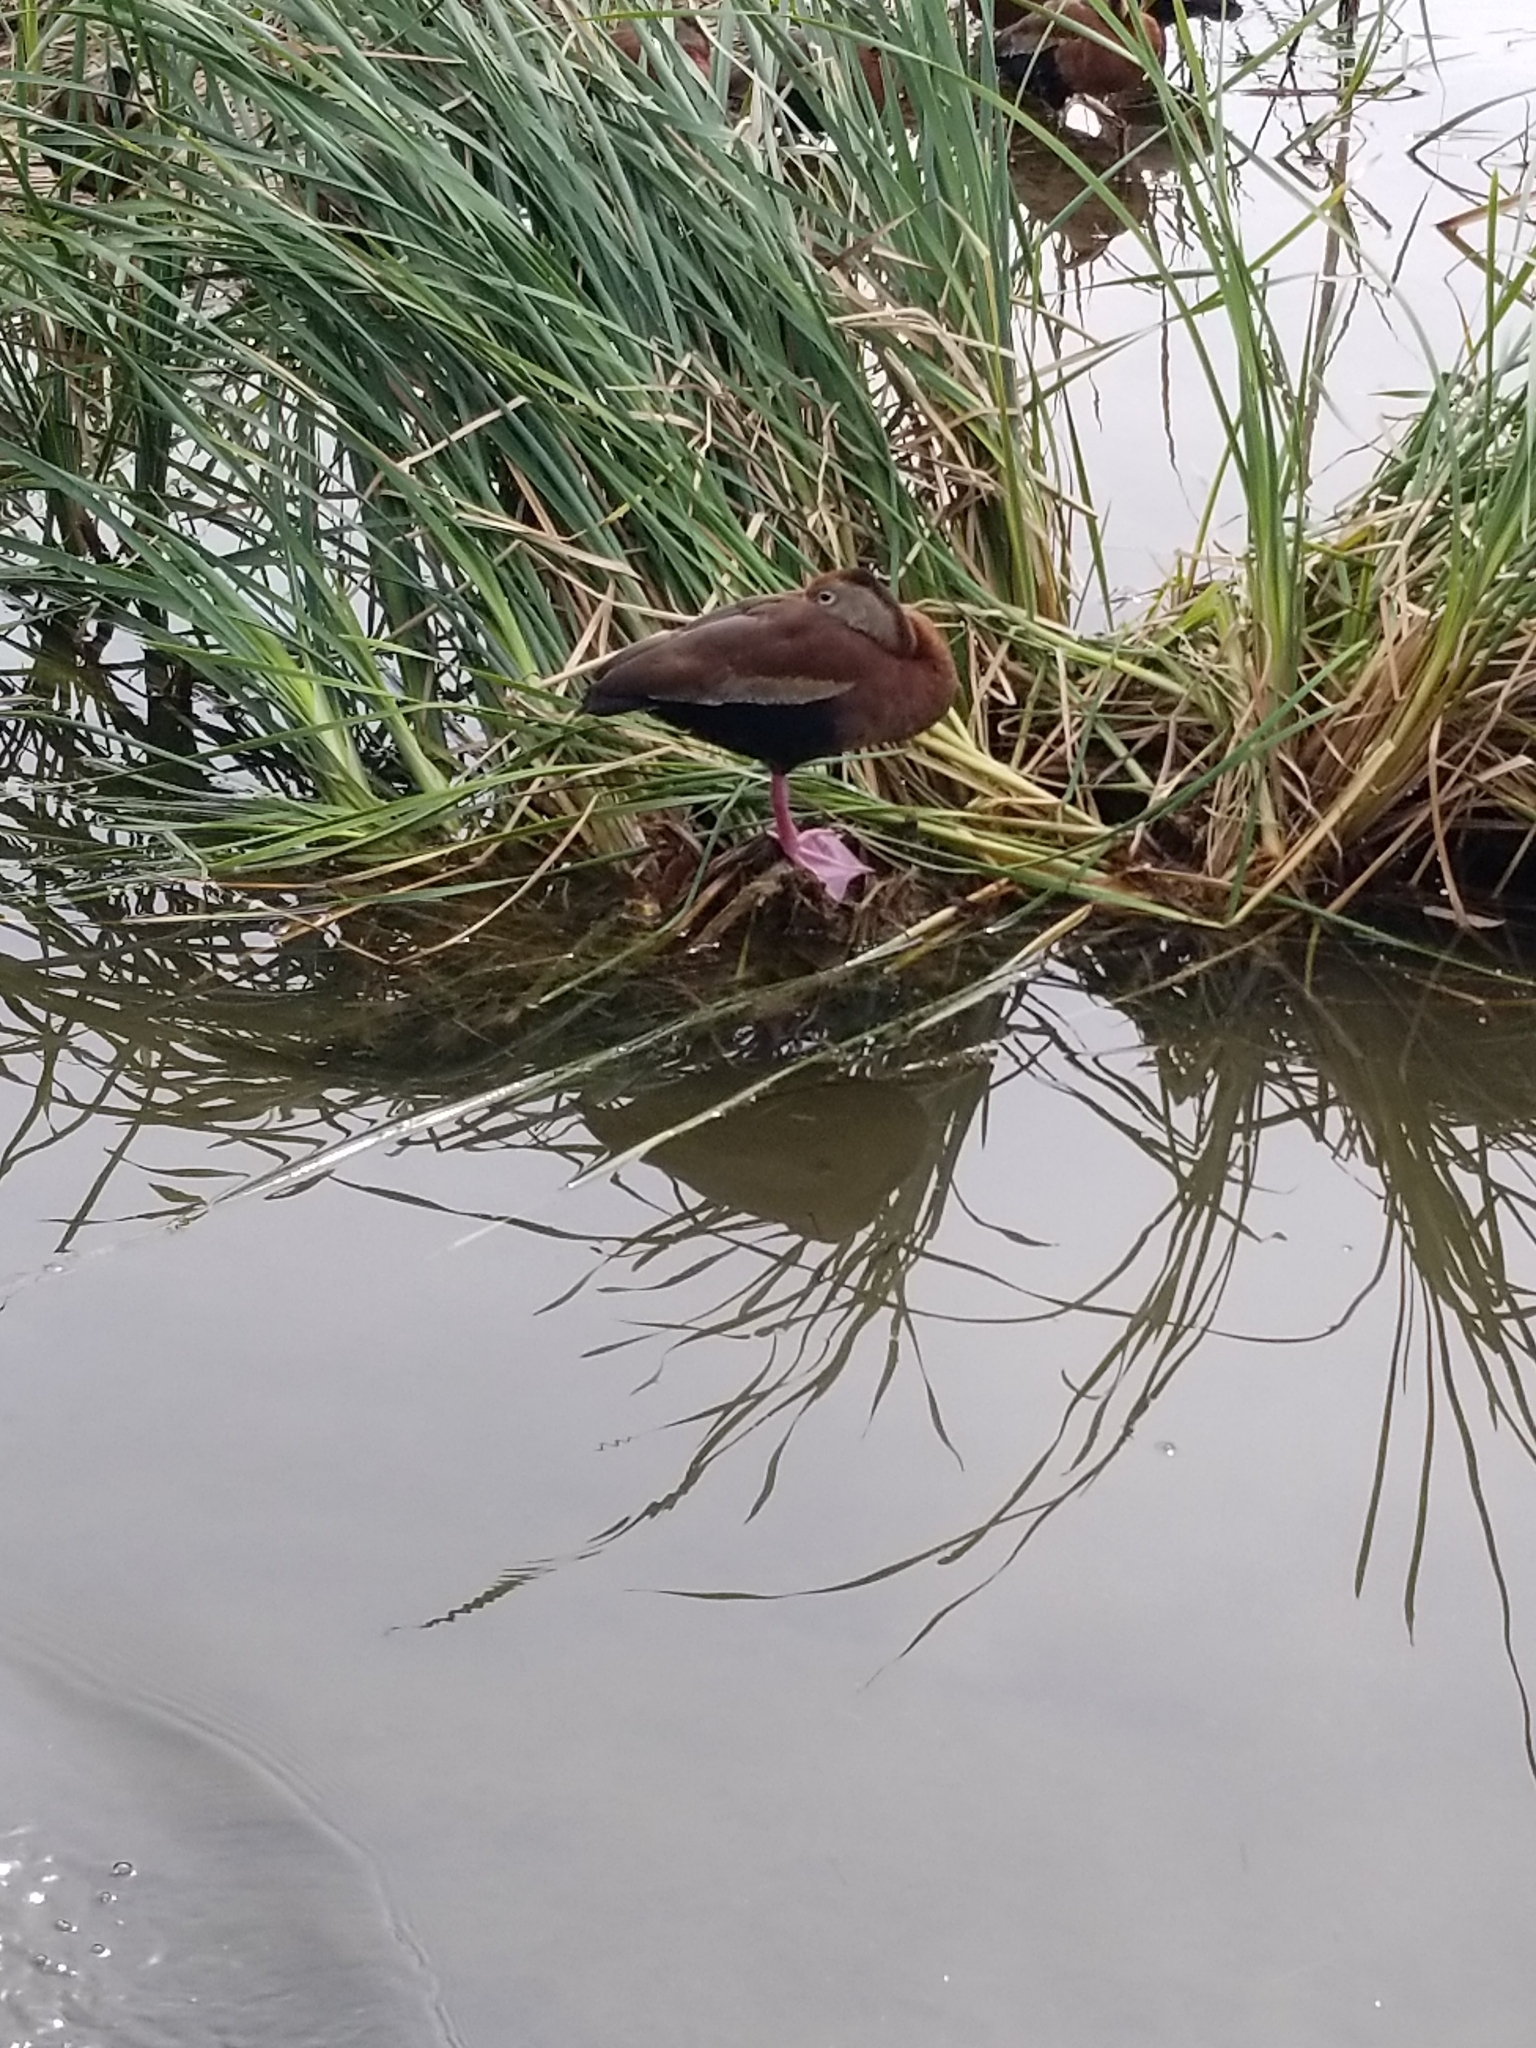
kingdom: Animalia
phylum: Chordata
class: Aves
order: Anseriformes
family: Anatidae
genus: Dendrocygna
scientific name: Dendrocygna autumnalis
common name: Black-bellied whistling duck
